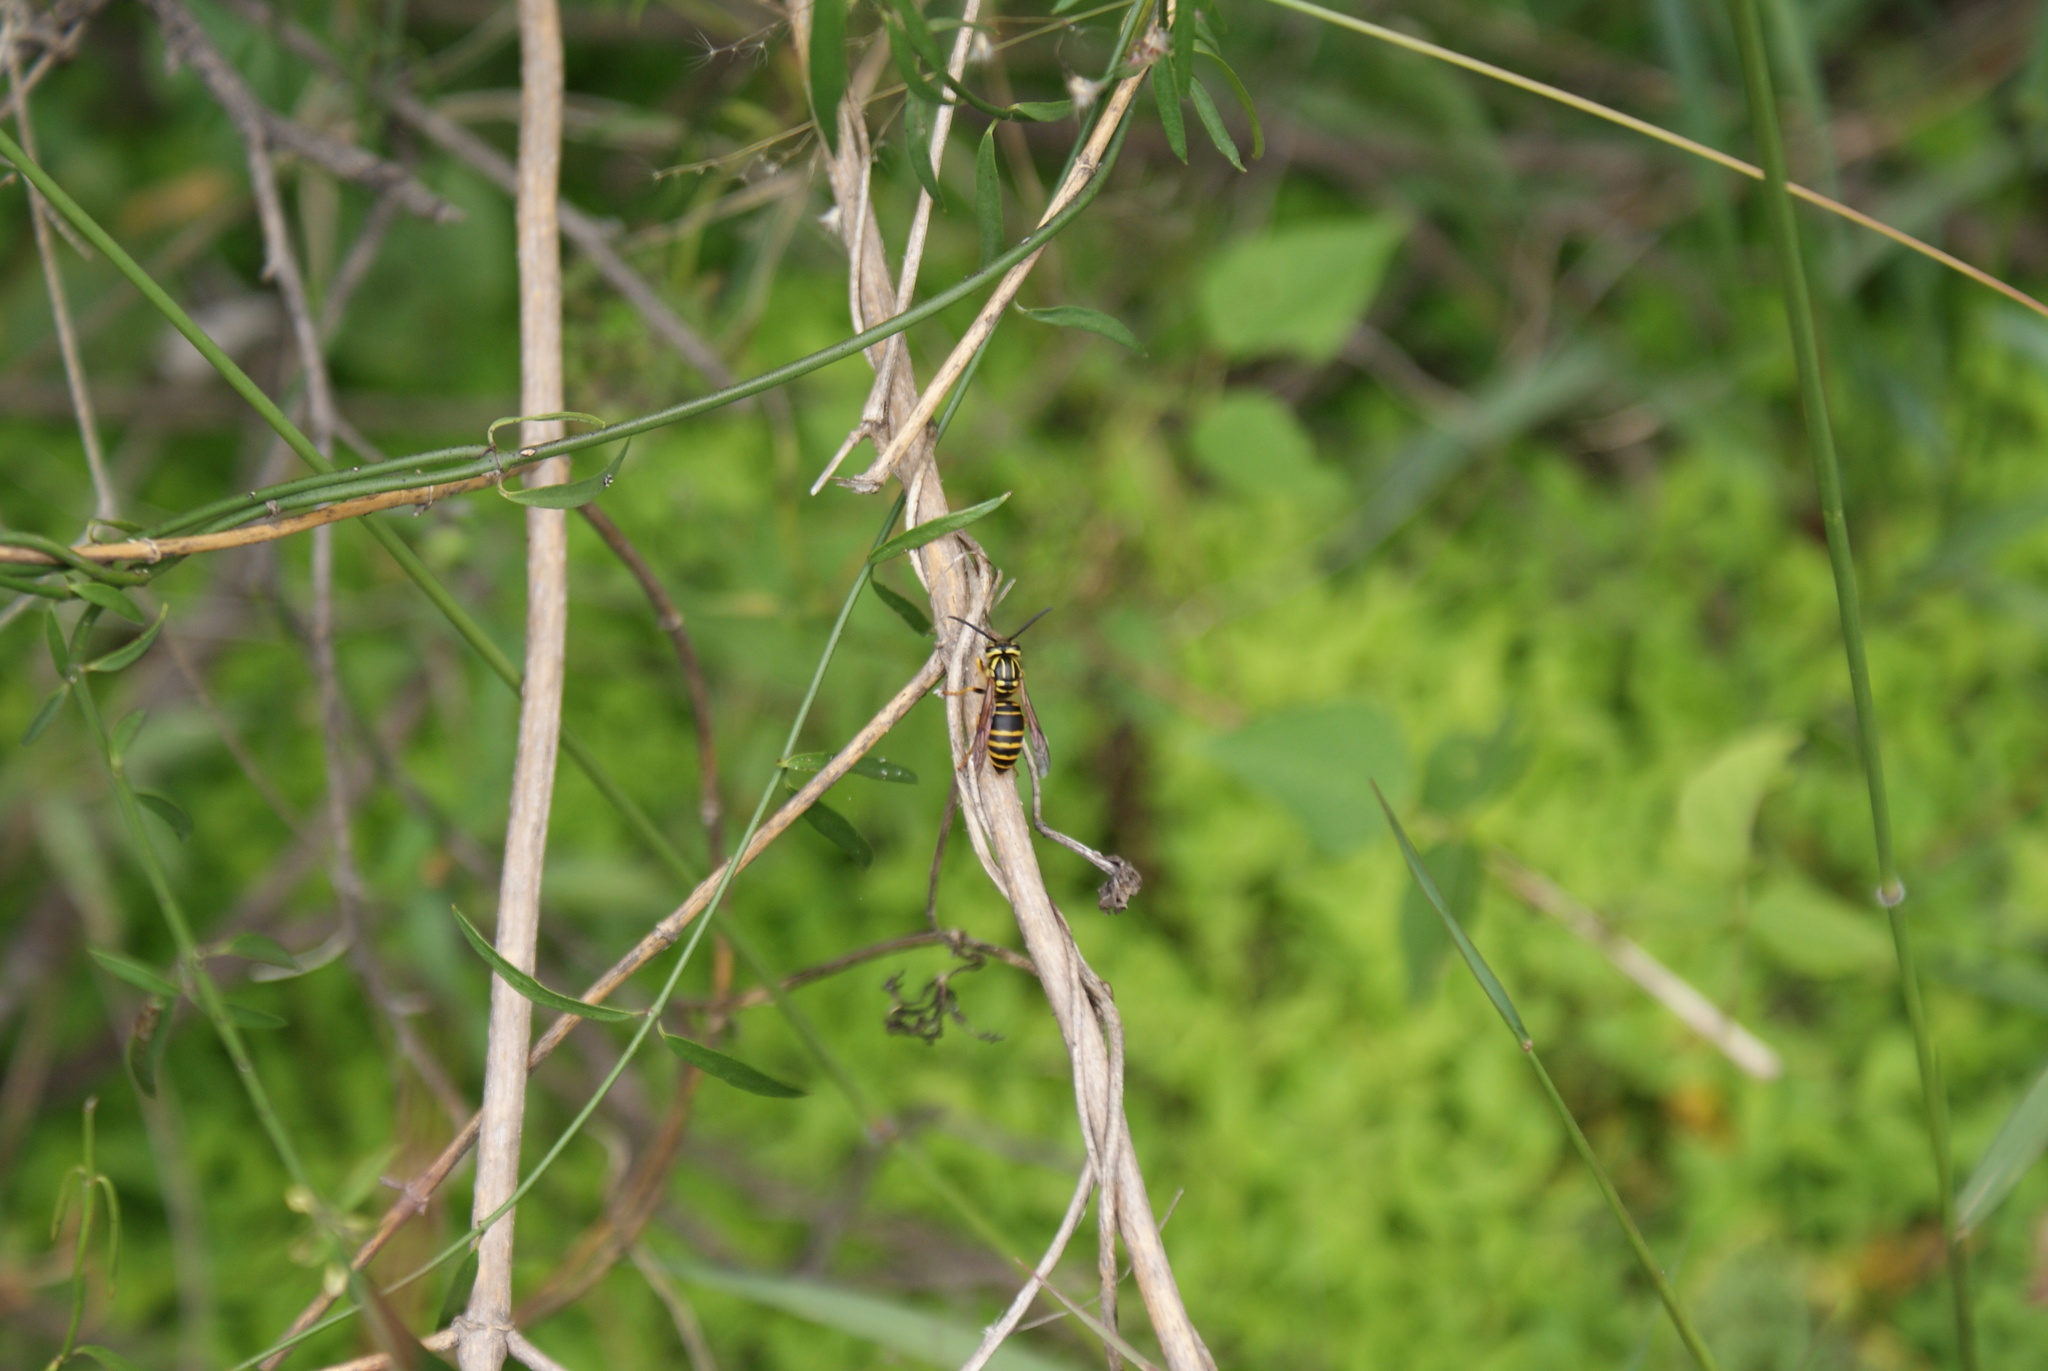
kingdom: Animalia
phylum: Arthropoda
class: Insecta
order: Hymenoptera
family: Vespidae
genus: Vespula
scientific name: Vespula squamosa
